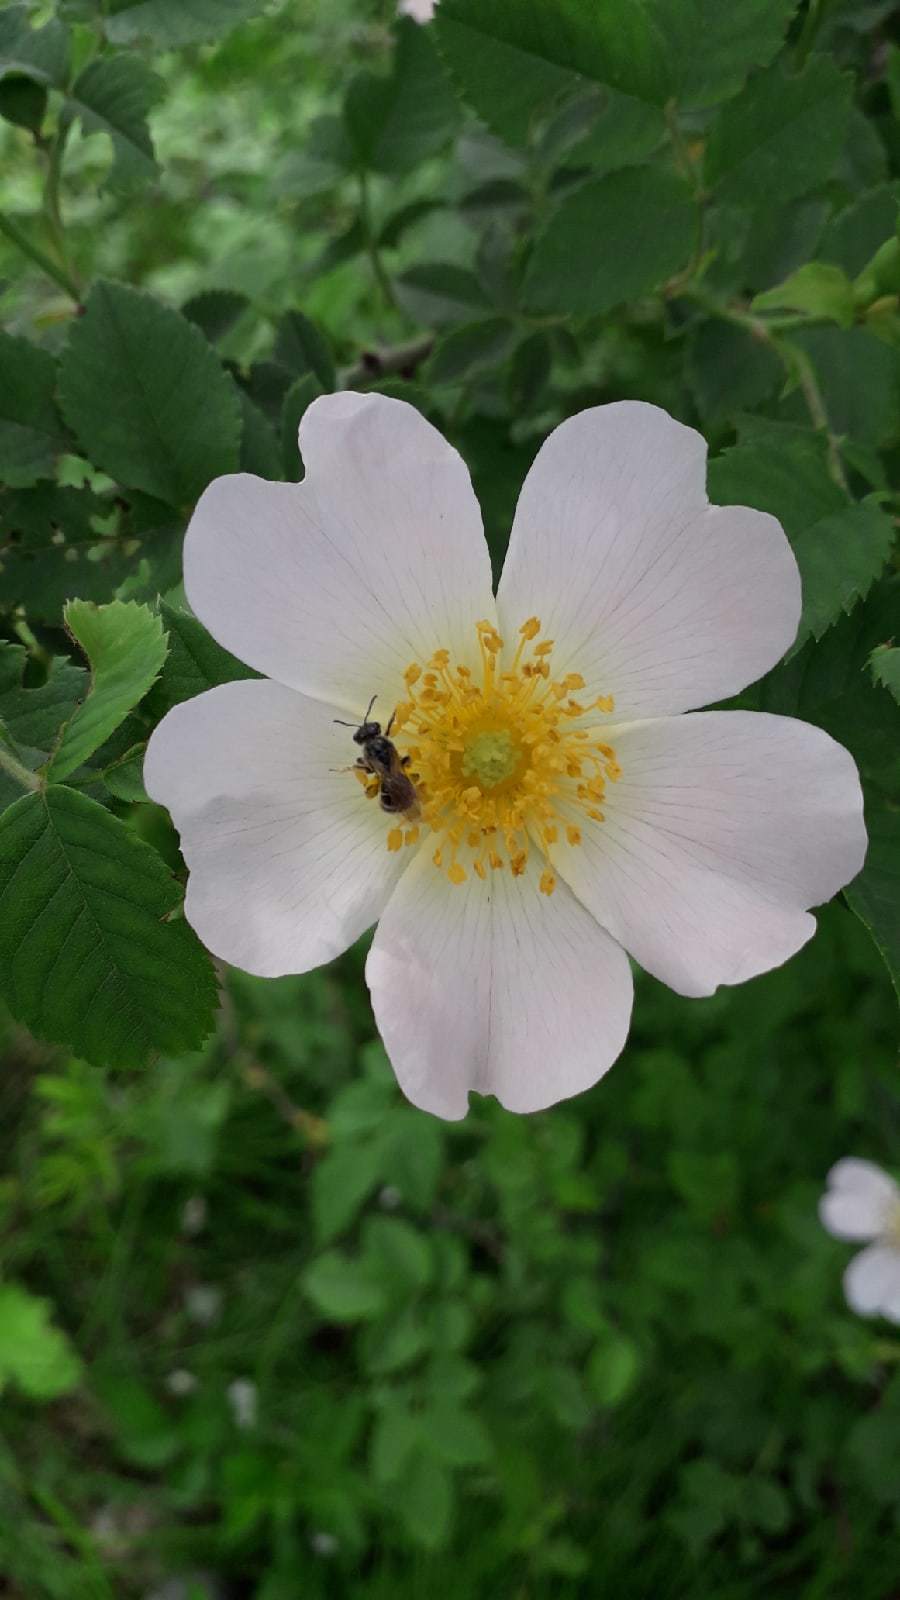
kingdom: Plantae
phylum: Tracheophyta
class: Magnoliopsida
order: Rosales
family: Rosaceae
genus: Rosa
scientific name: Rosa
